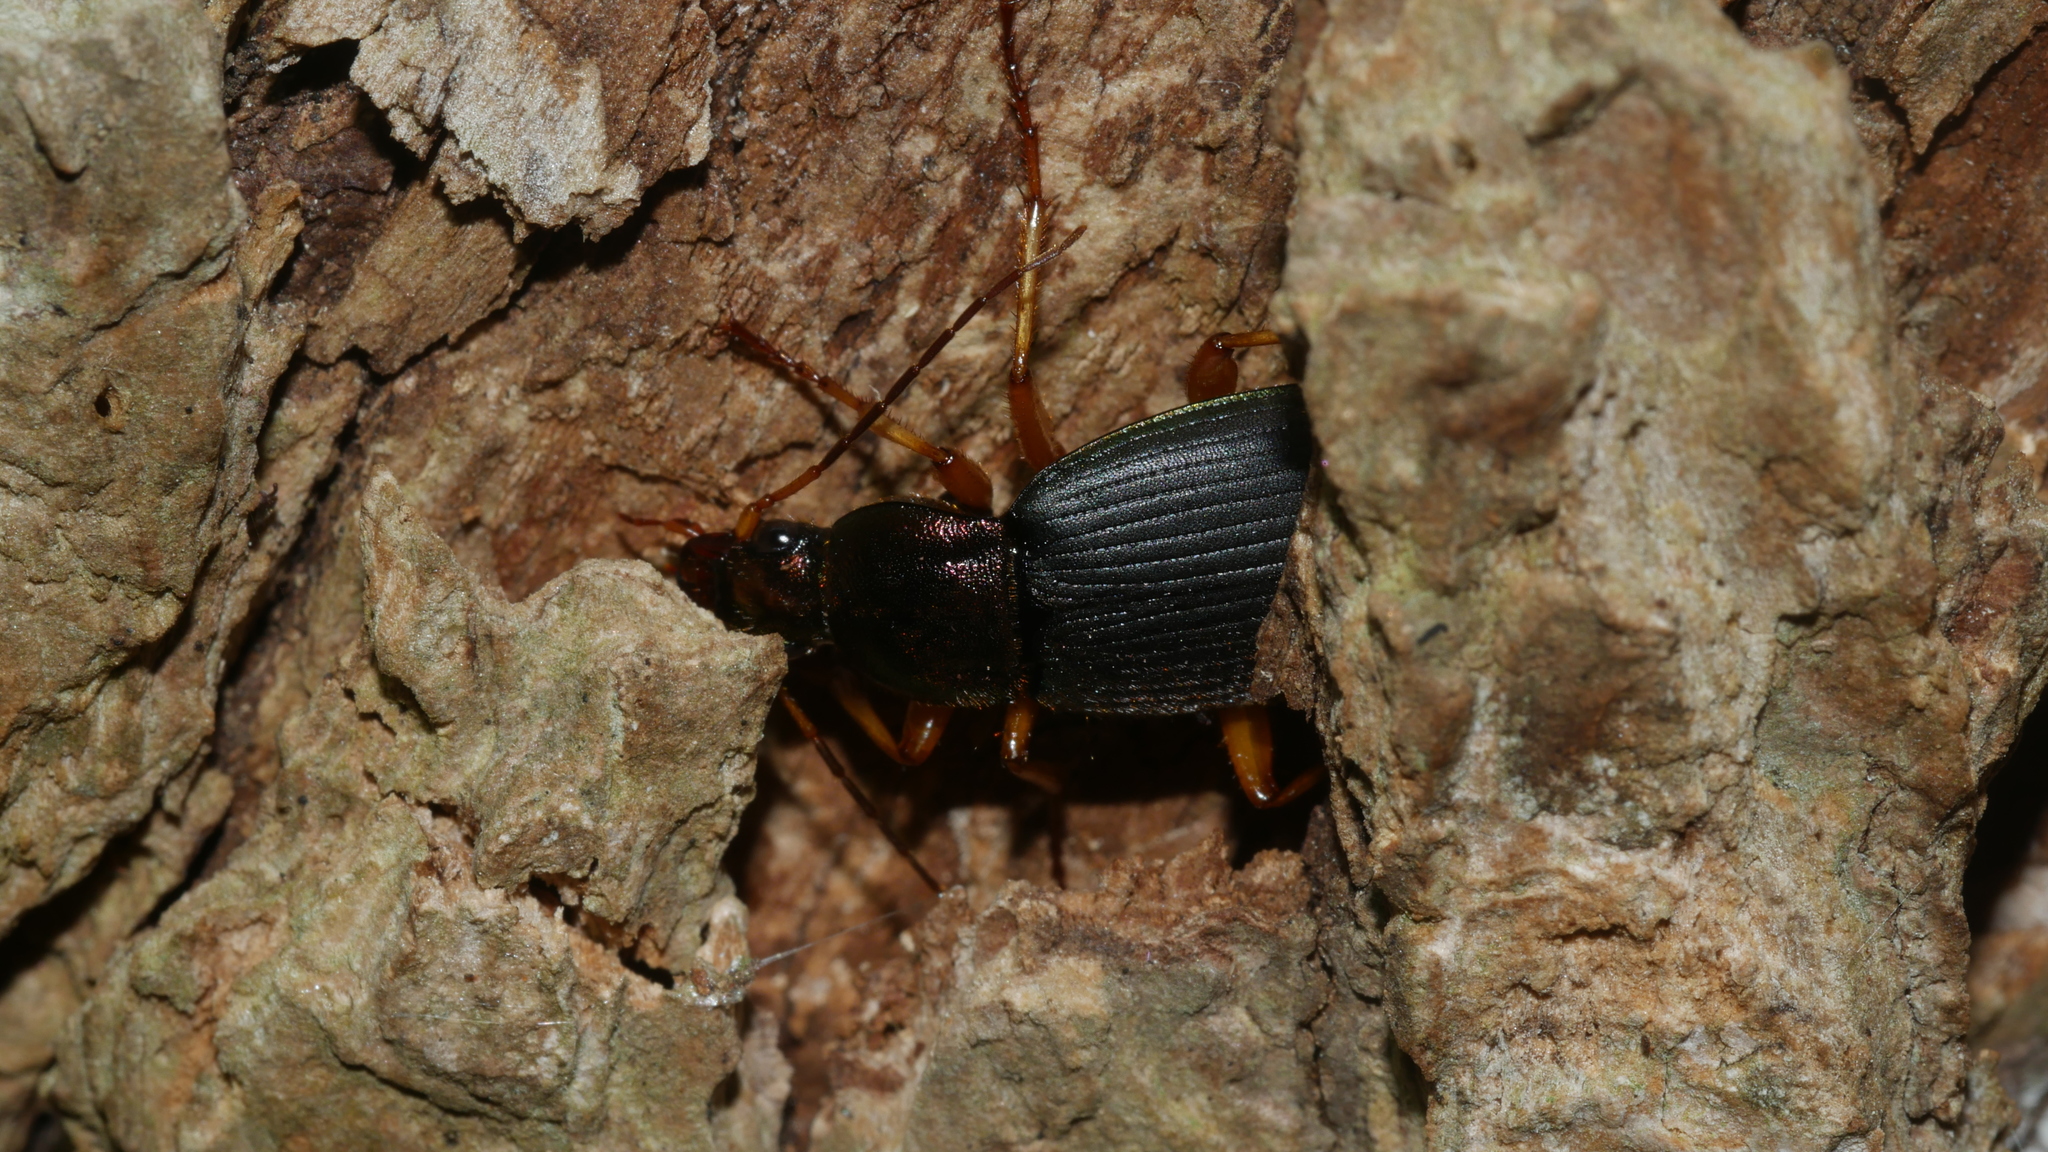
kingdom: Animalia
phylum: Arthropoda
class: Insecta
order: Coleoptera
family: Carabidae
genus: Chlaenius
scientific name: Chlaenius aestivus
